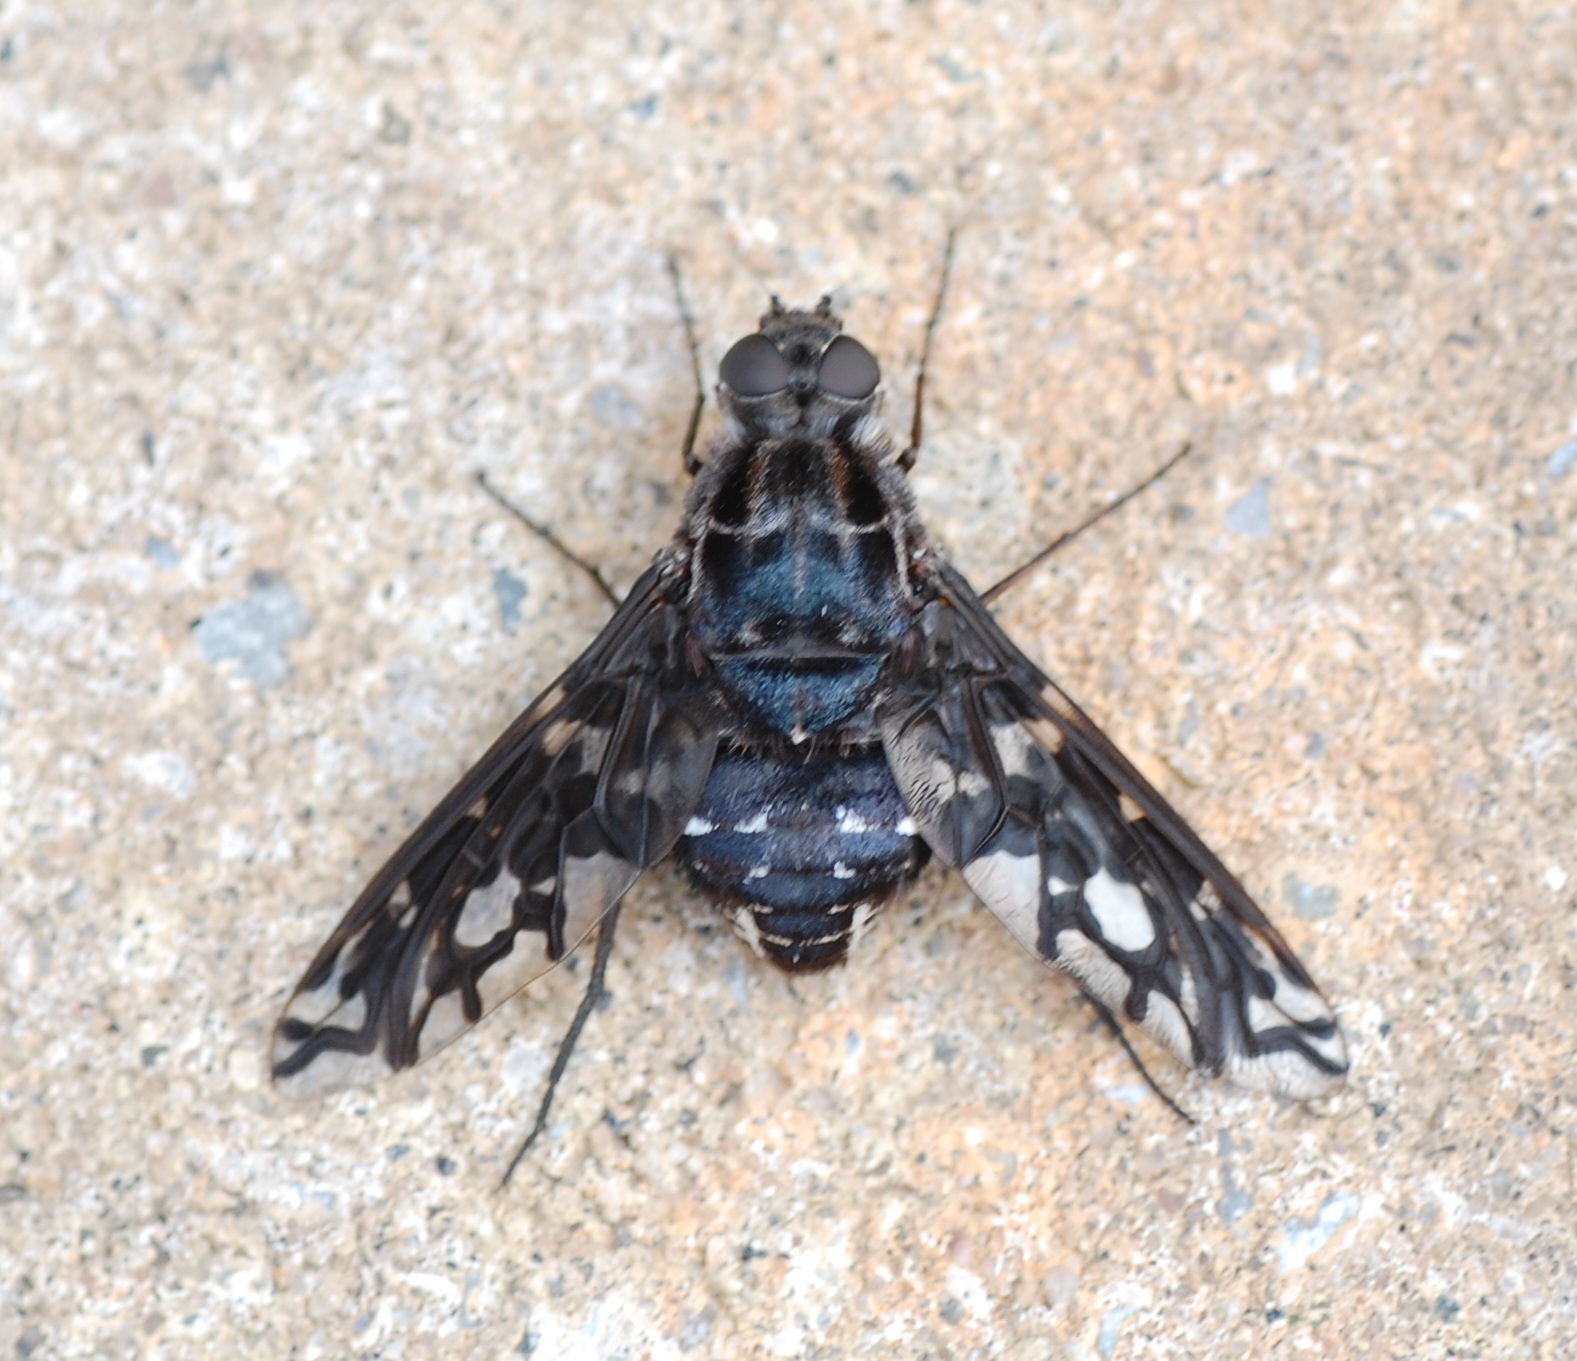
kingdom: Animalia
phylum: Arthropoda
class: Insecta
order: Diptera
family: Bombyliidae
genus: Xenox
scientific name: Xenox tigrinus
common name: Tiger bee fly
